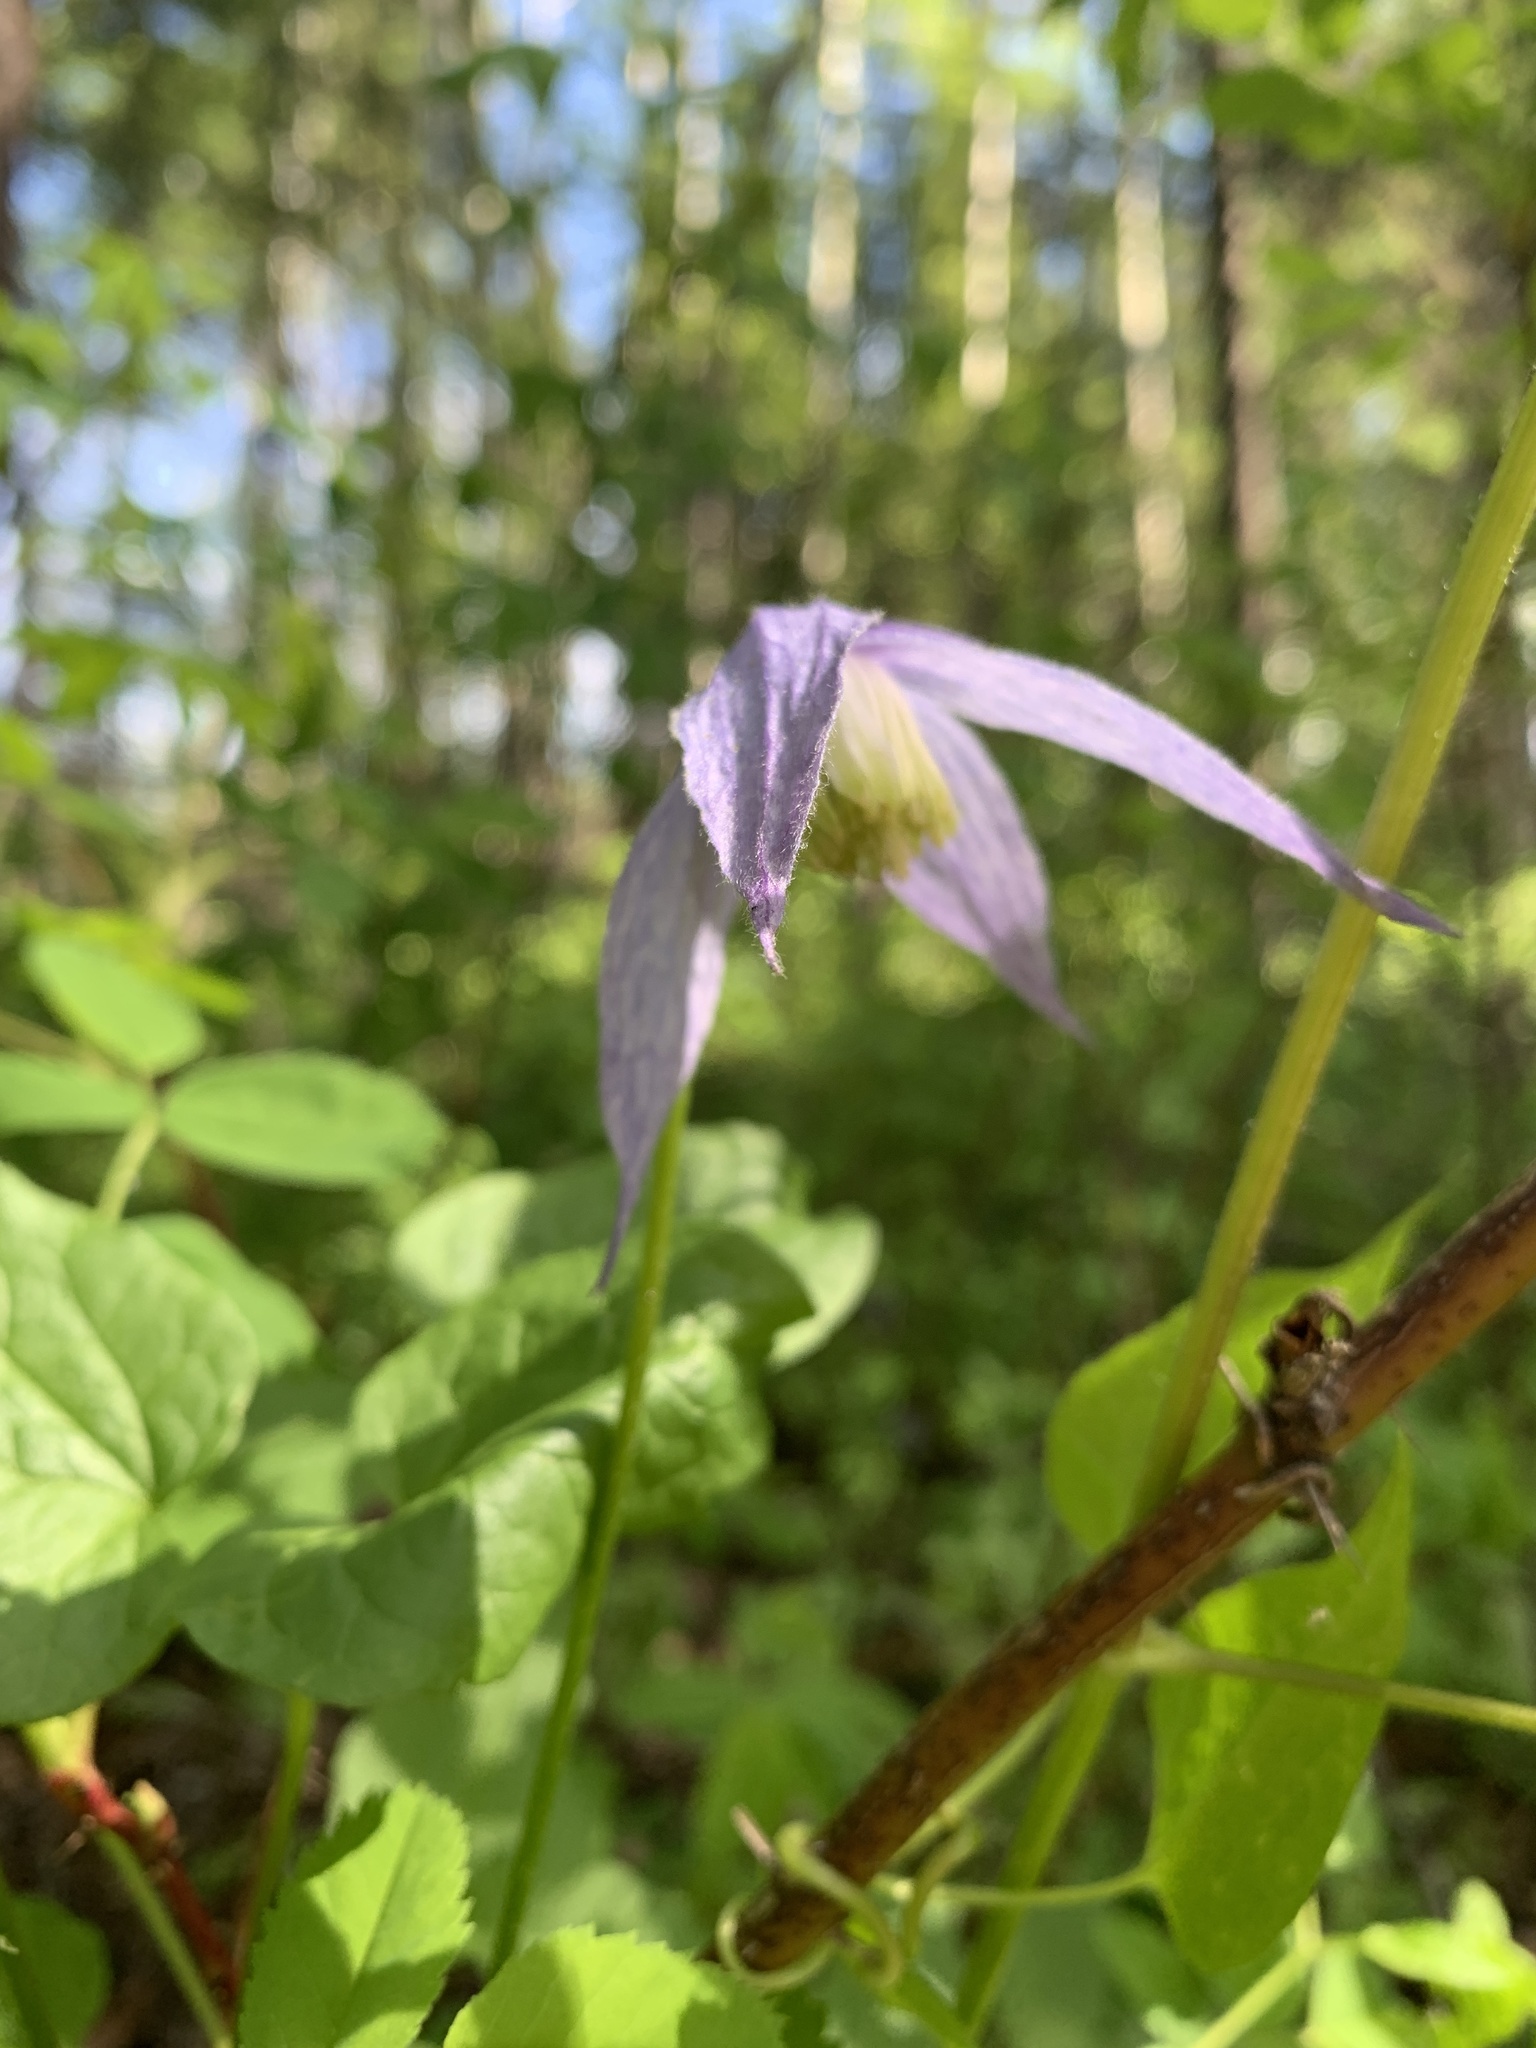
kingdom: Plantae
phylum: Tracheophyta
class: Magnoliopsida
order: Ranunculales
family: Ranunculaceae
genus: Clematis
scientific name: Clematis occidentalis
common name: Purple clematis
